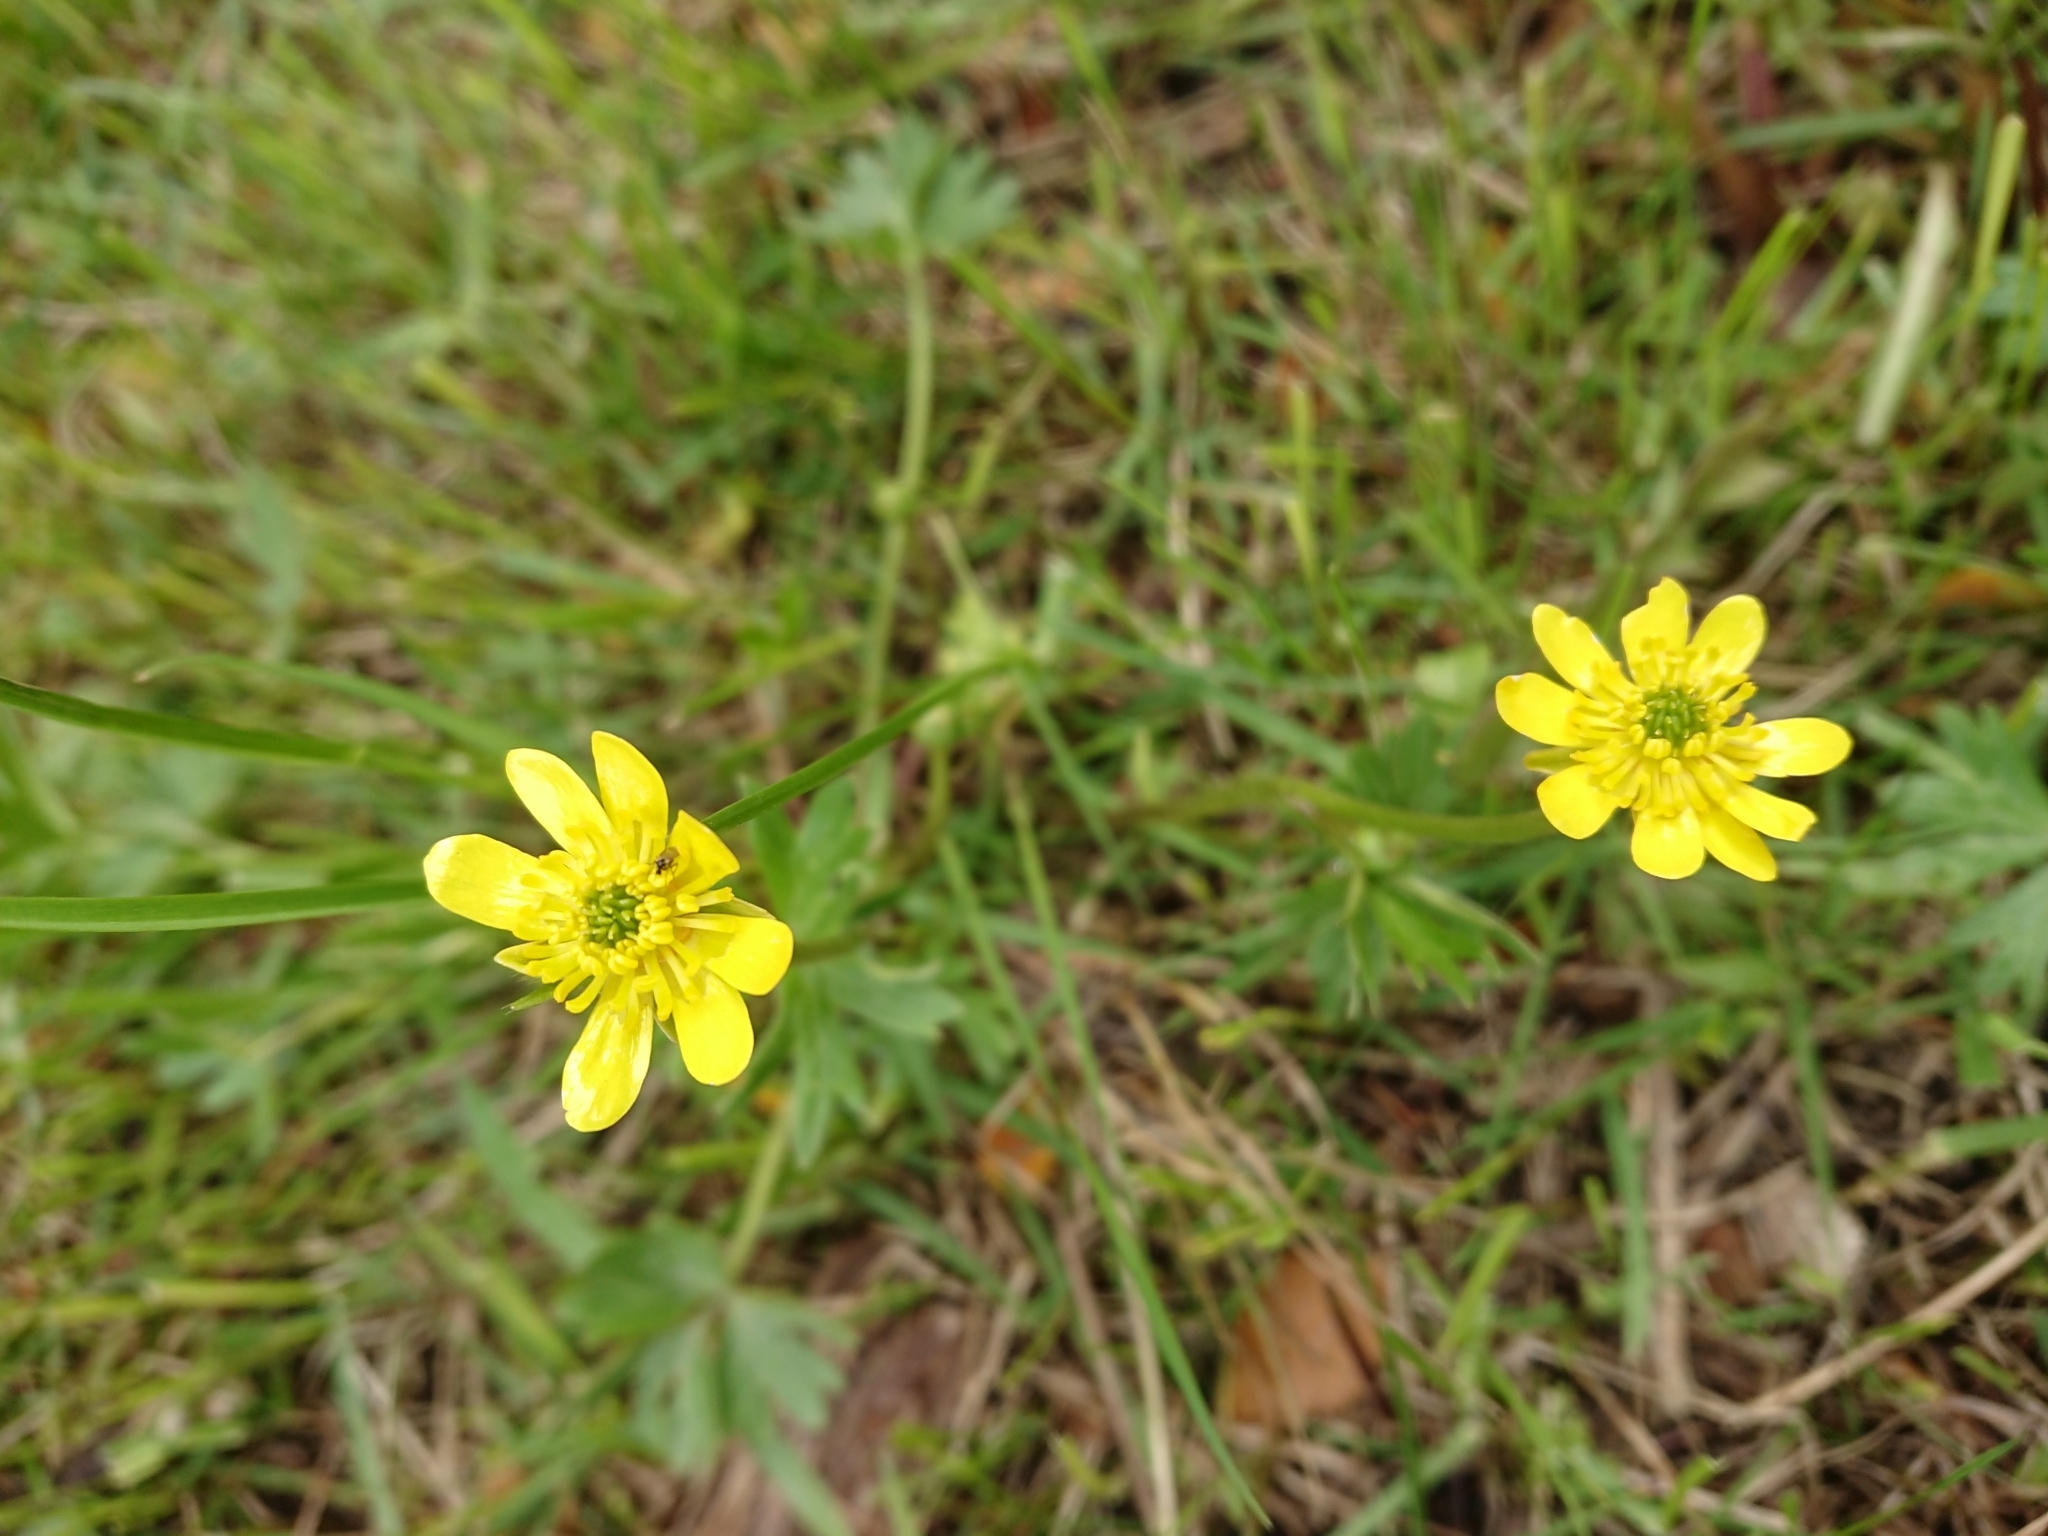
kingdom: Plantae
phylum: Tracheophyta
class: Magnoliopsida
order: Ranunculales
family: Ranunculaceae
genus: Ranunculus
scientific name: Ranunculus peduncularis
